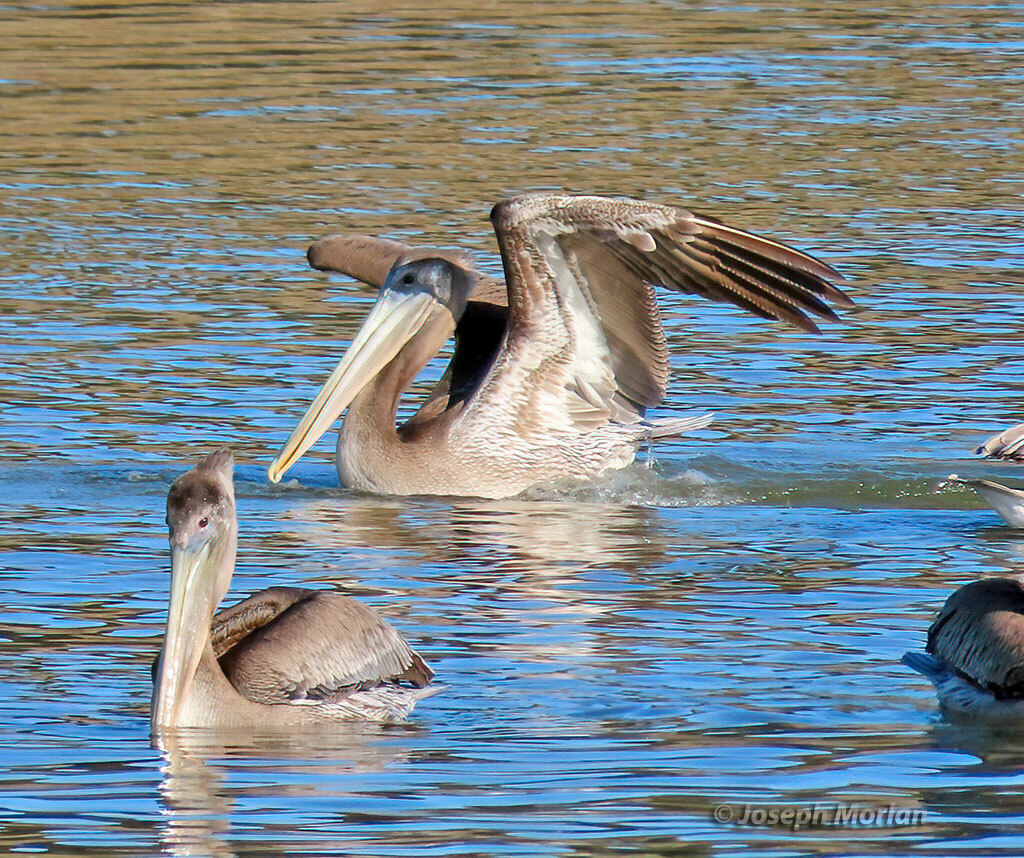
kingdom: Animalia
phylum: Chordata
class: Aves
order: Pelecaniformes
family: Pelecanidae
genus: Pelecanus
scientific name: Pelecanus occidentalis
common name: Brown pelican
